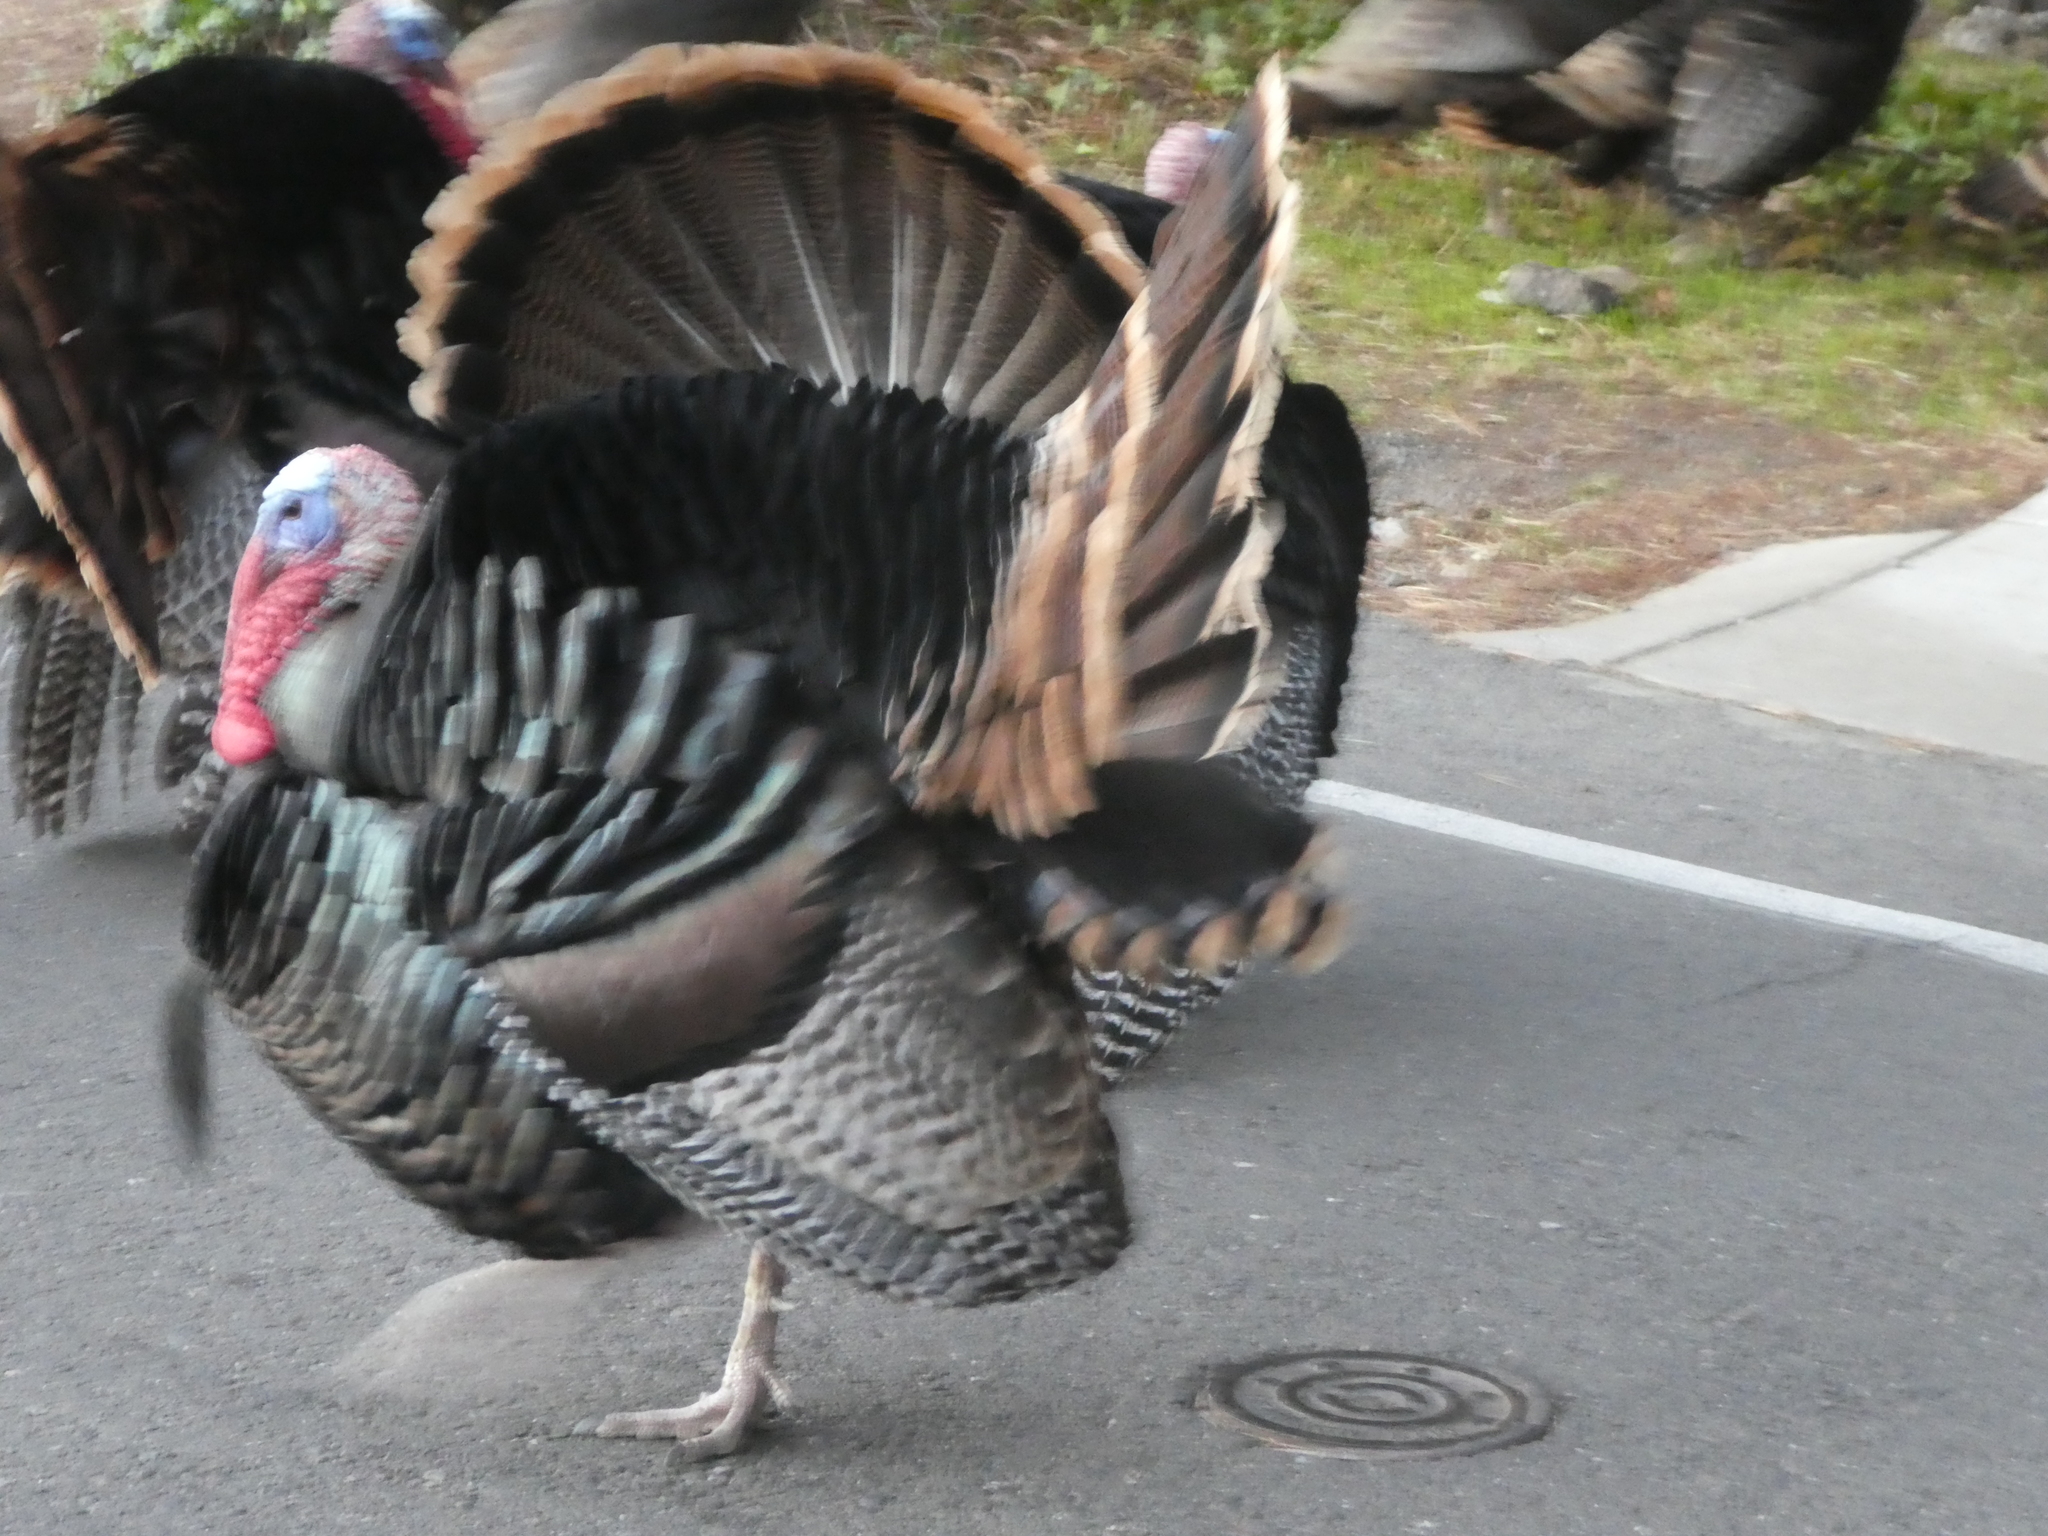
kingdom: Animalia
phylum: Chordata
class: Aves
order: Galliformes
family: Phasianidae
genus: Meleagris
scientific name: Meleagris gallopavo
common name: Wild turkey
